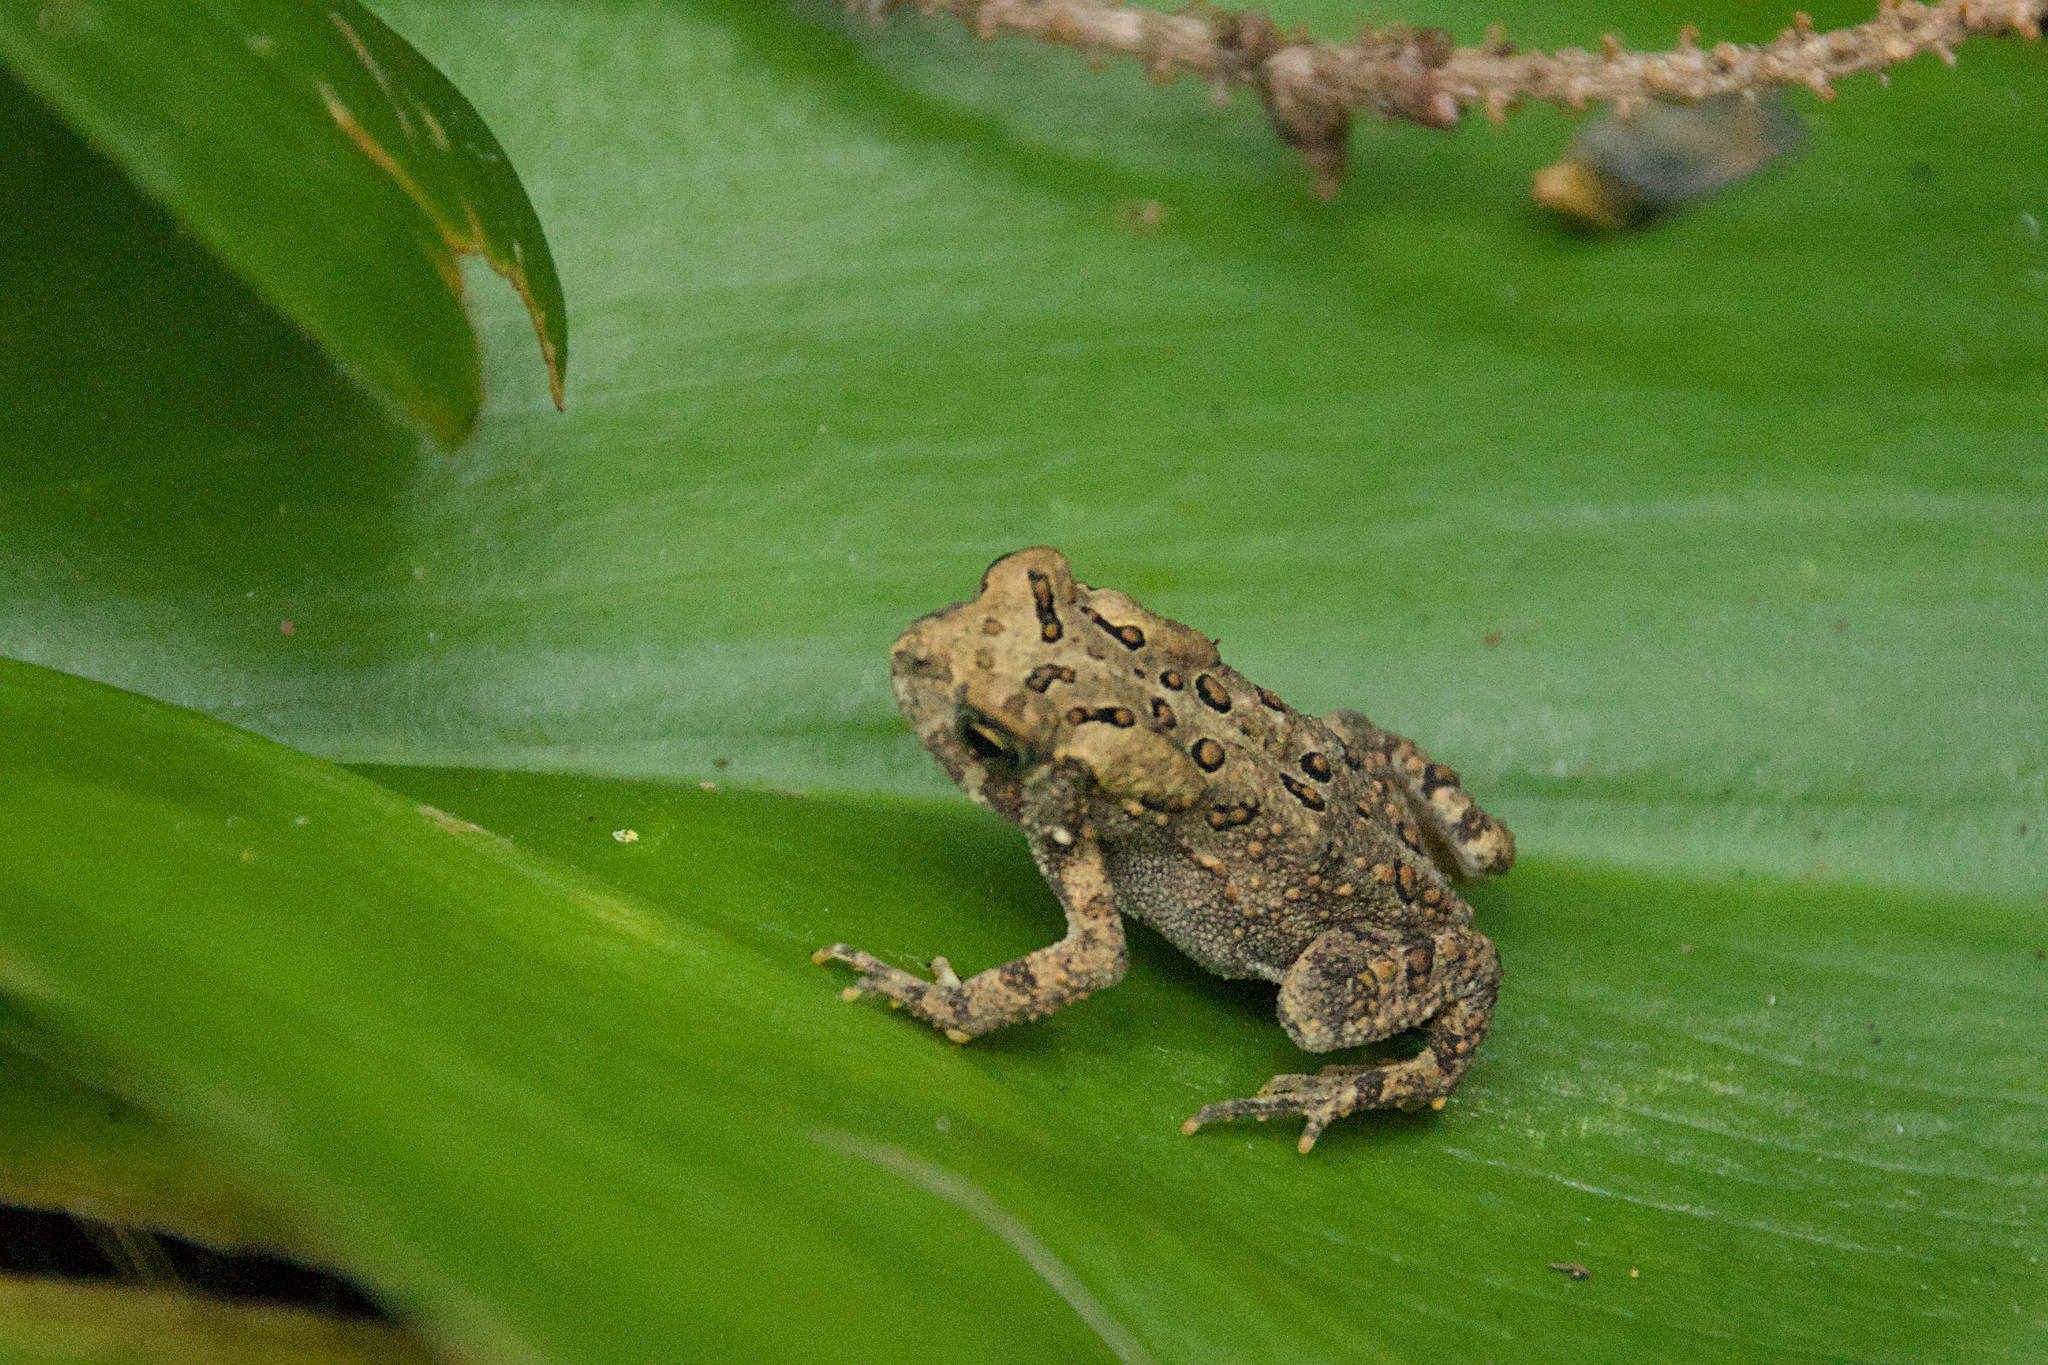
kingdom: Animalia
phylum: Chordata
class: Amphibia
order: Anura
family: Bufonidae
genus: Anaxyrus
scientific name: Anaxyrus americanus
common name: American toad
